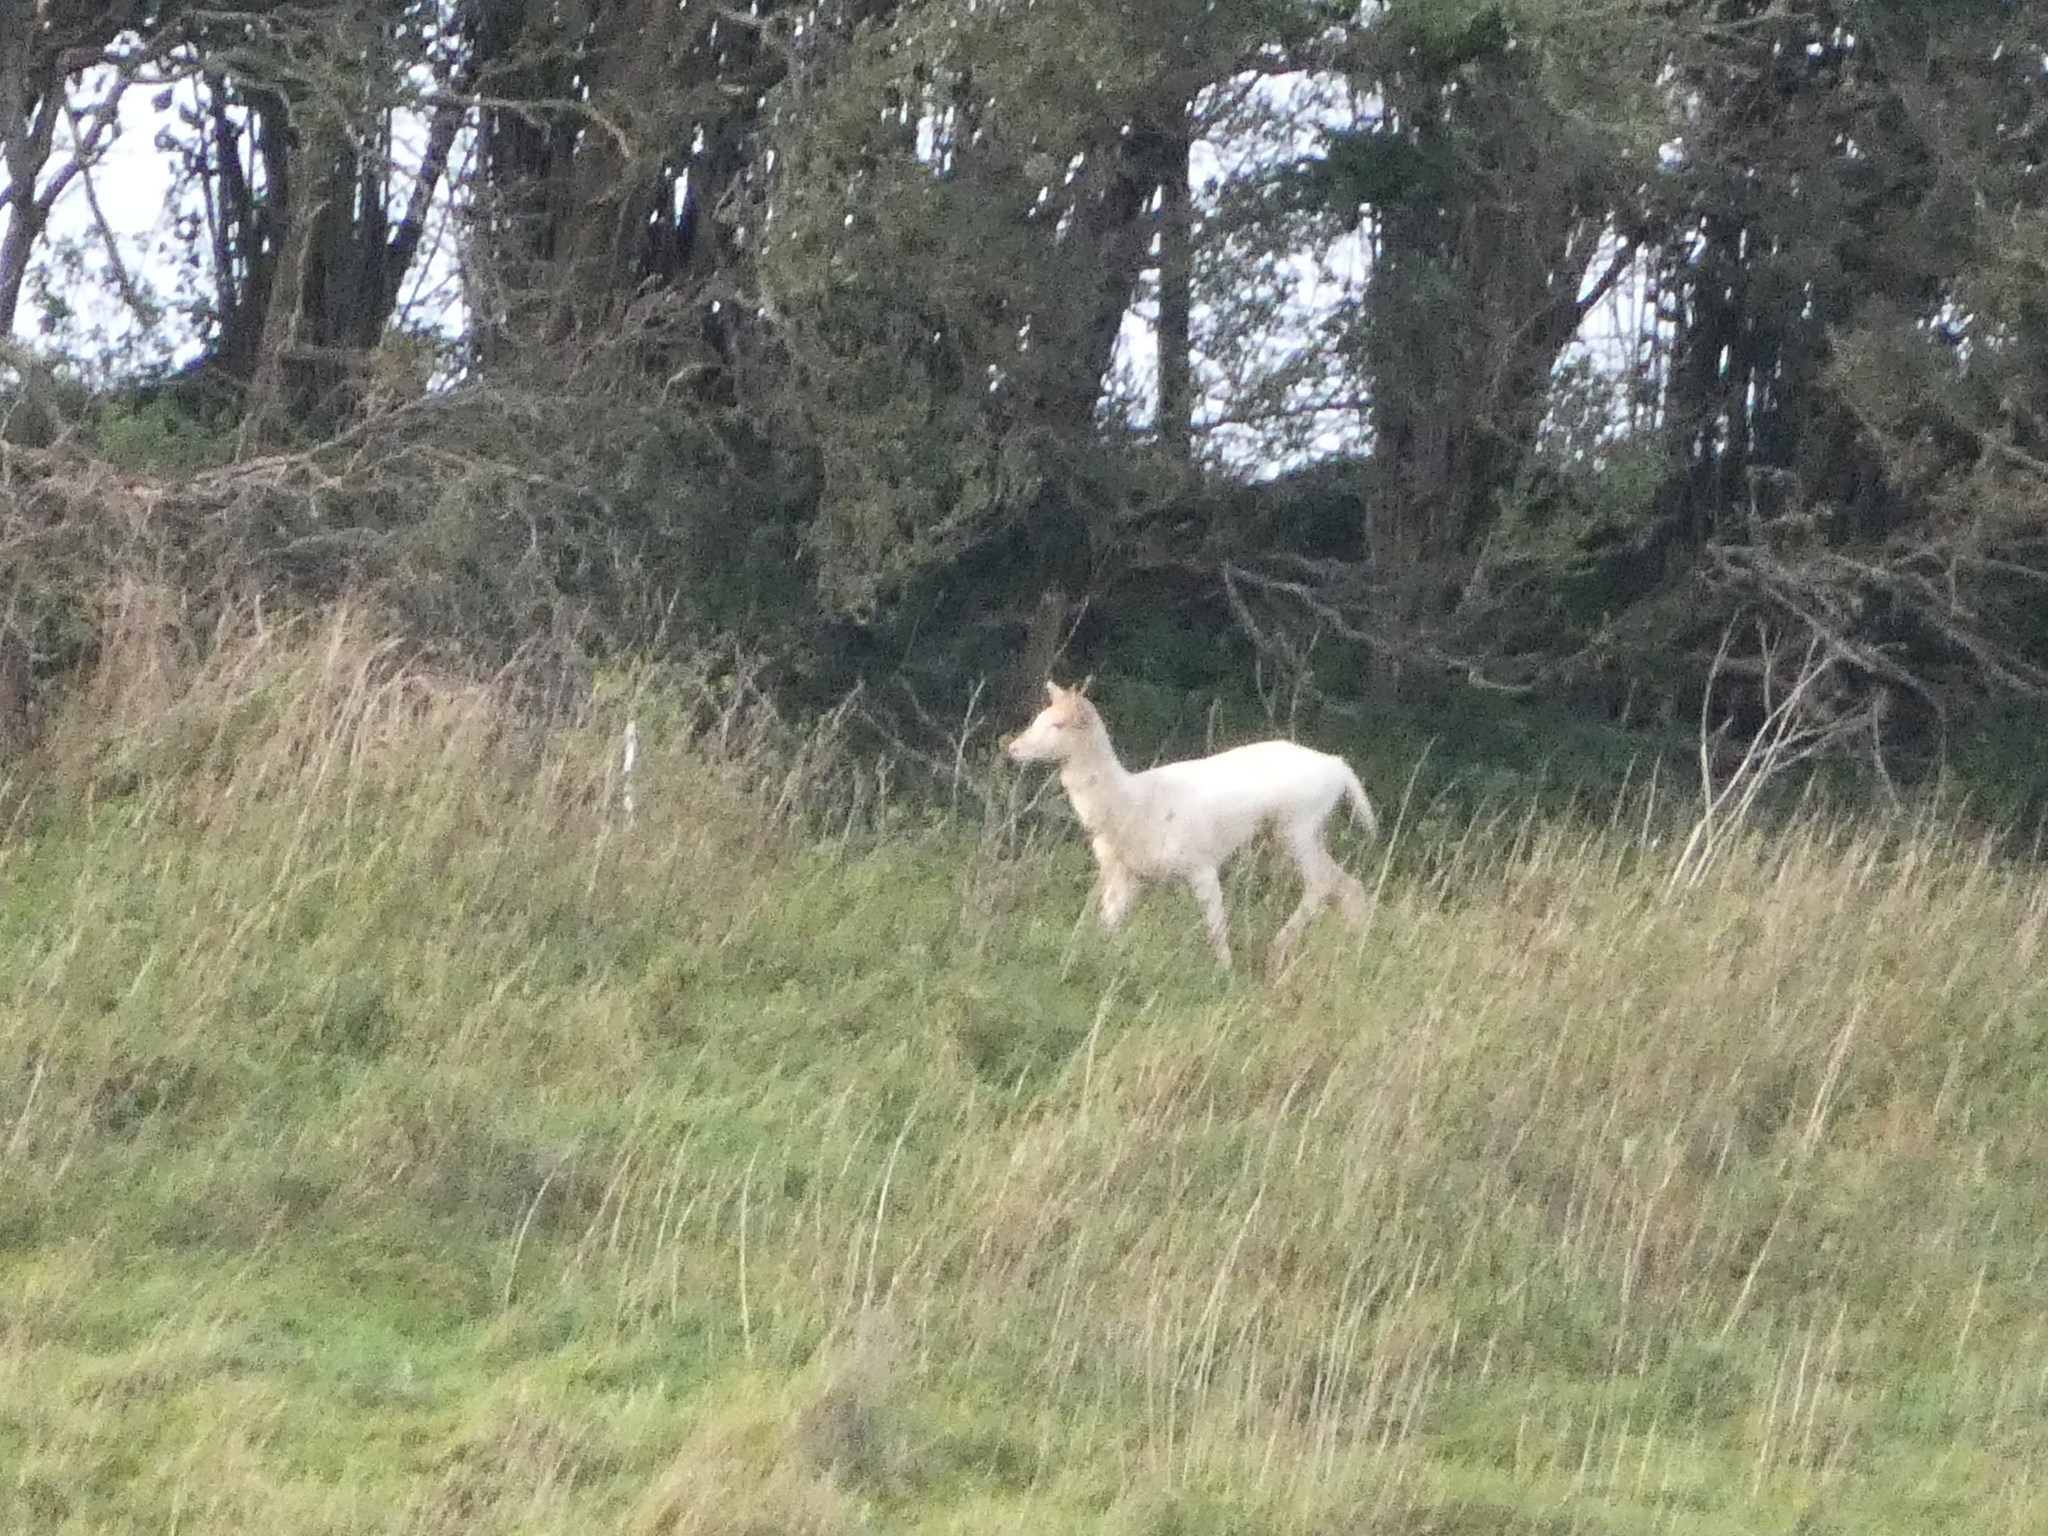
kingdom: Animalia
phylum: Chordata
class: Mammalia
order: Artiodactyla
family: Cervidae
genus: Dama
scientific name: Dama dama
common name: Fallow deer
